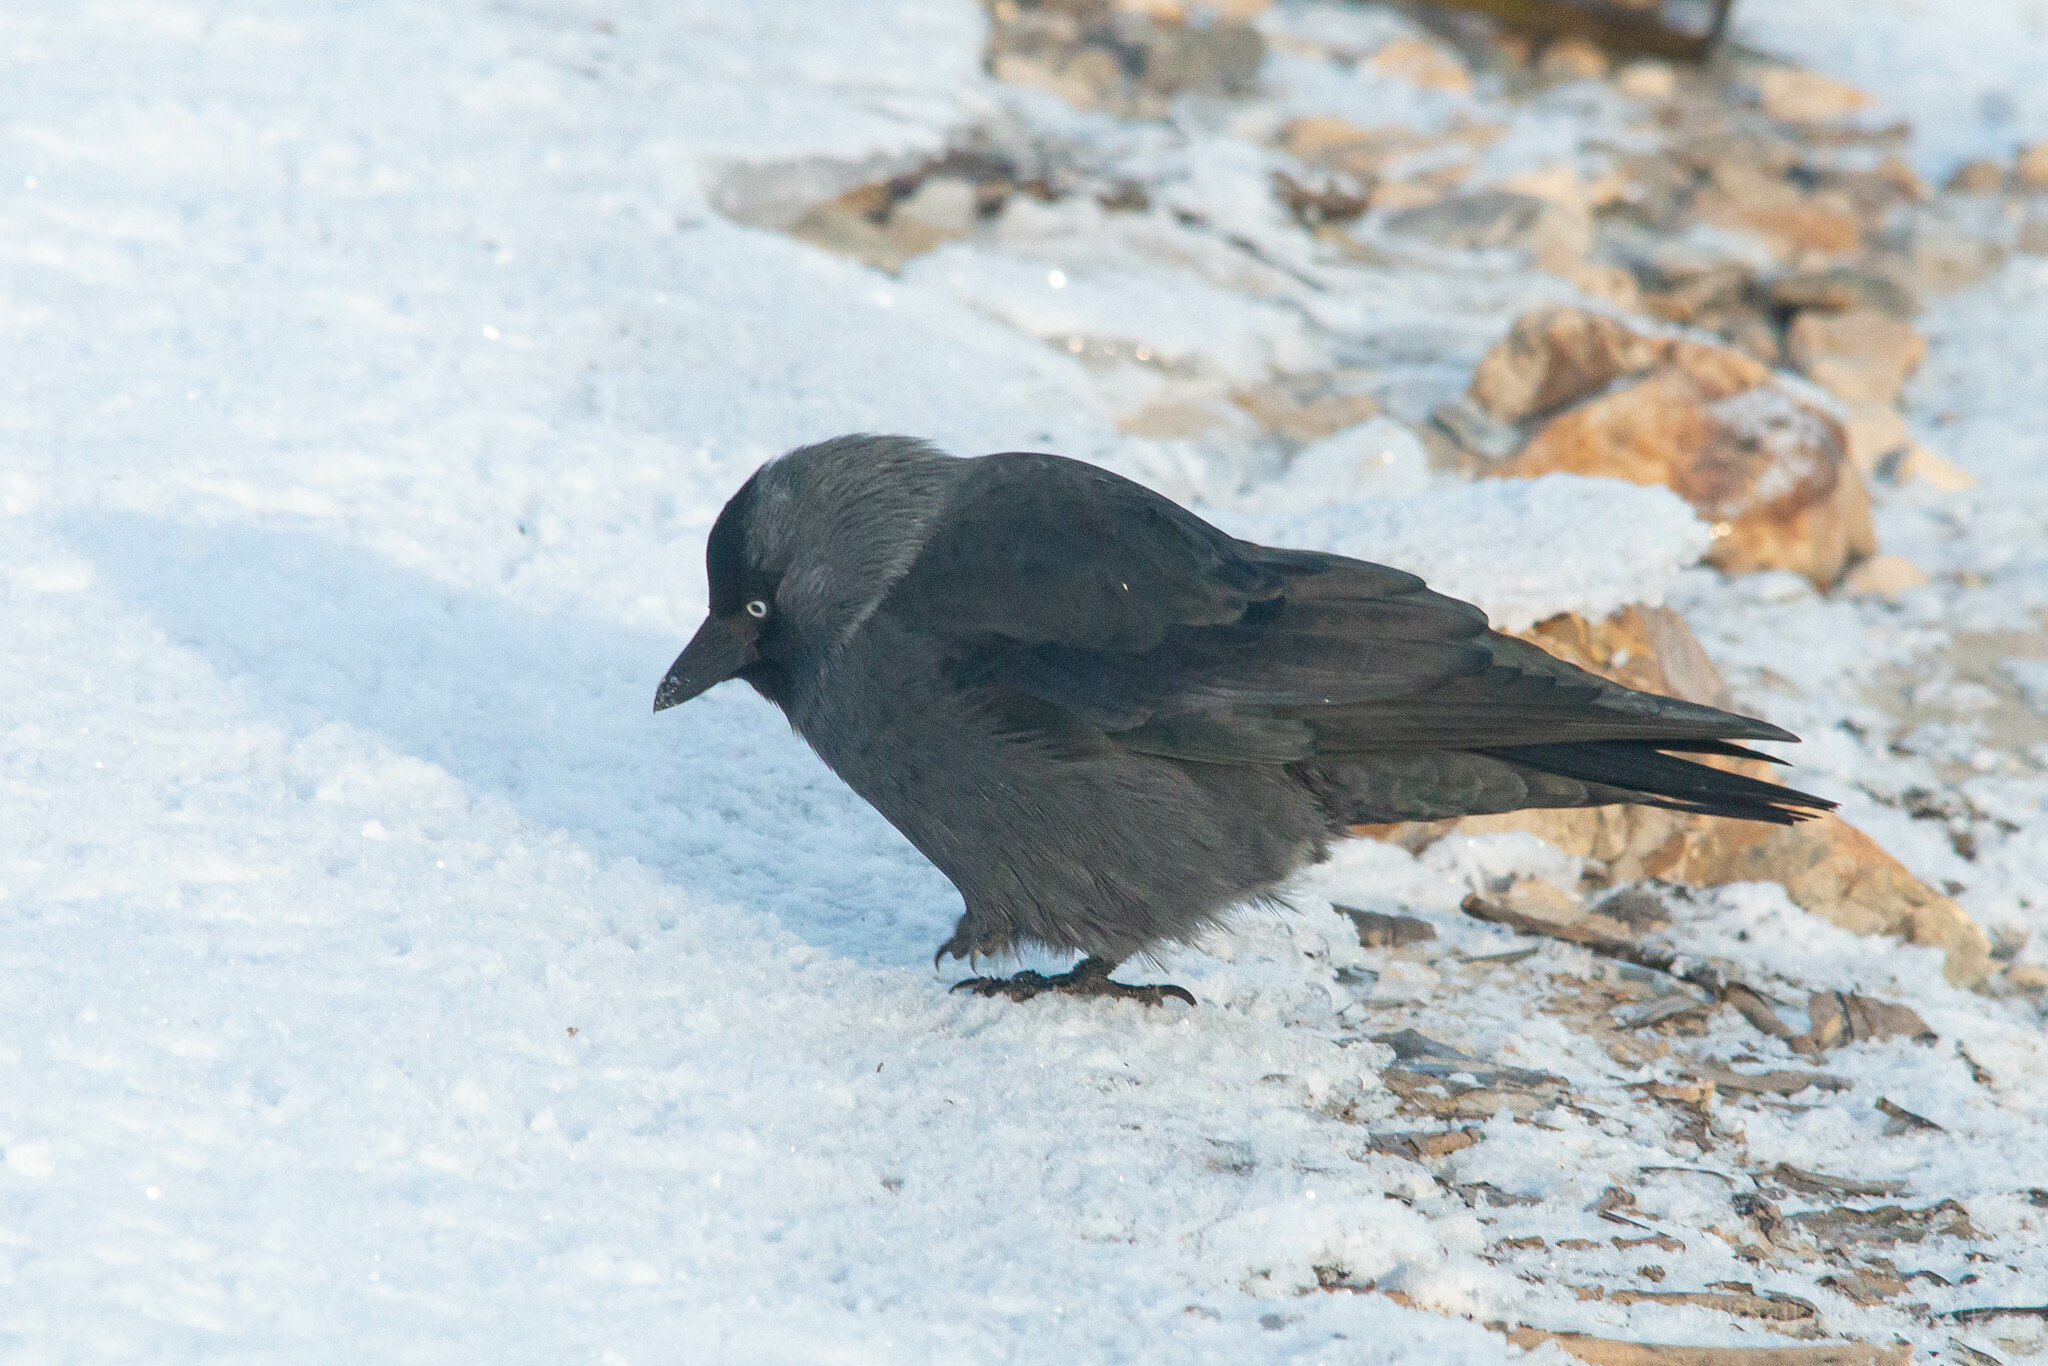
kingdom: Animalia
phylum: Chordata
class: Aves
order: Passeriformes
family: Corvidae
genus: Coloeus
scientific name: Coloeus monedula
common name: Western jackdaw
